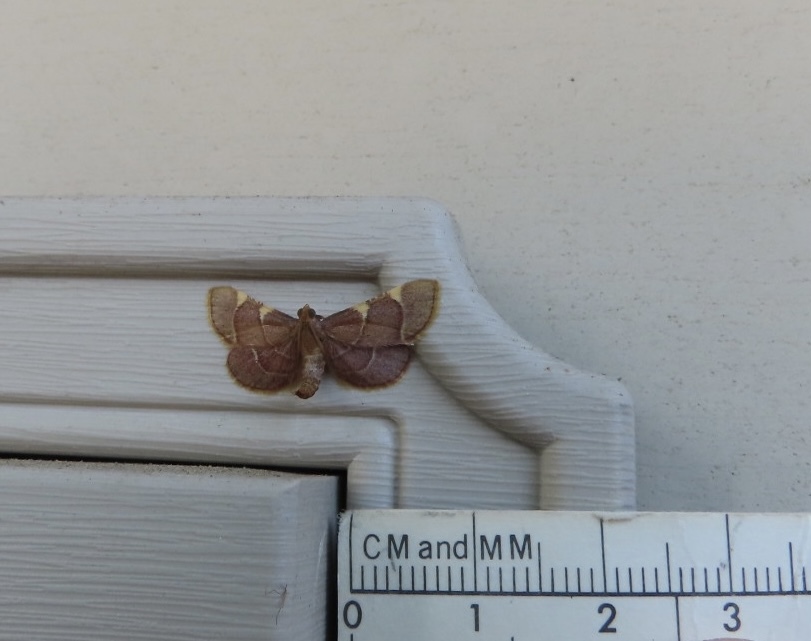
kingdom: Animalia
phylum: Arthropoda
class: Insecta
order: Lepidoptera
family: Pyralidae
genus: Hypsopygia
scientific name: Hypsopygia olinalis
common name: Yellow-fringed dolichomia moth
